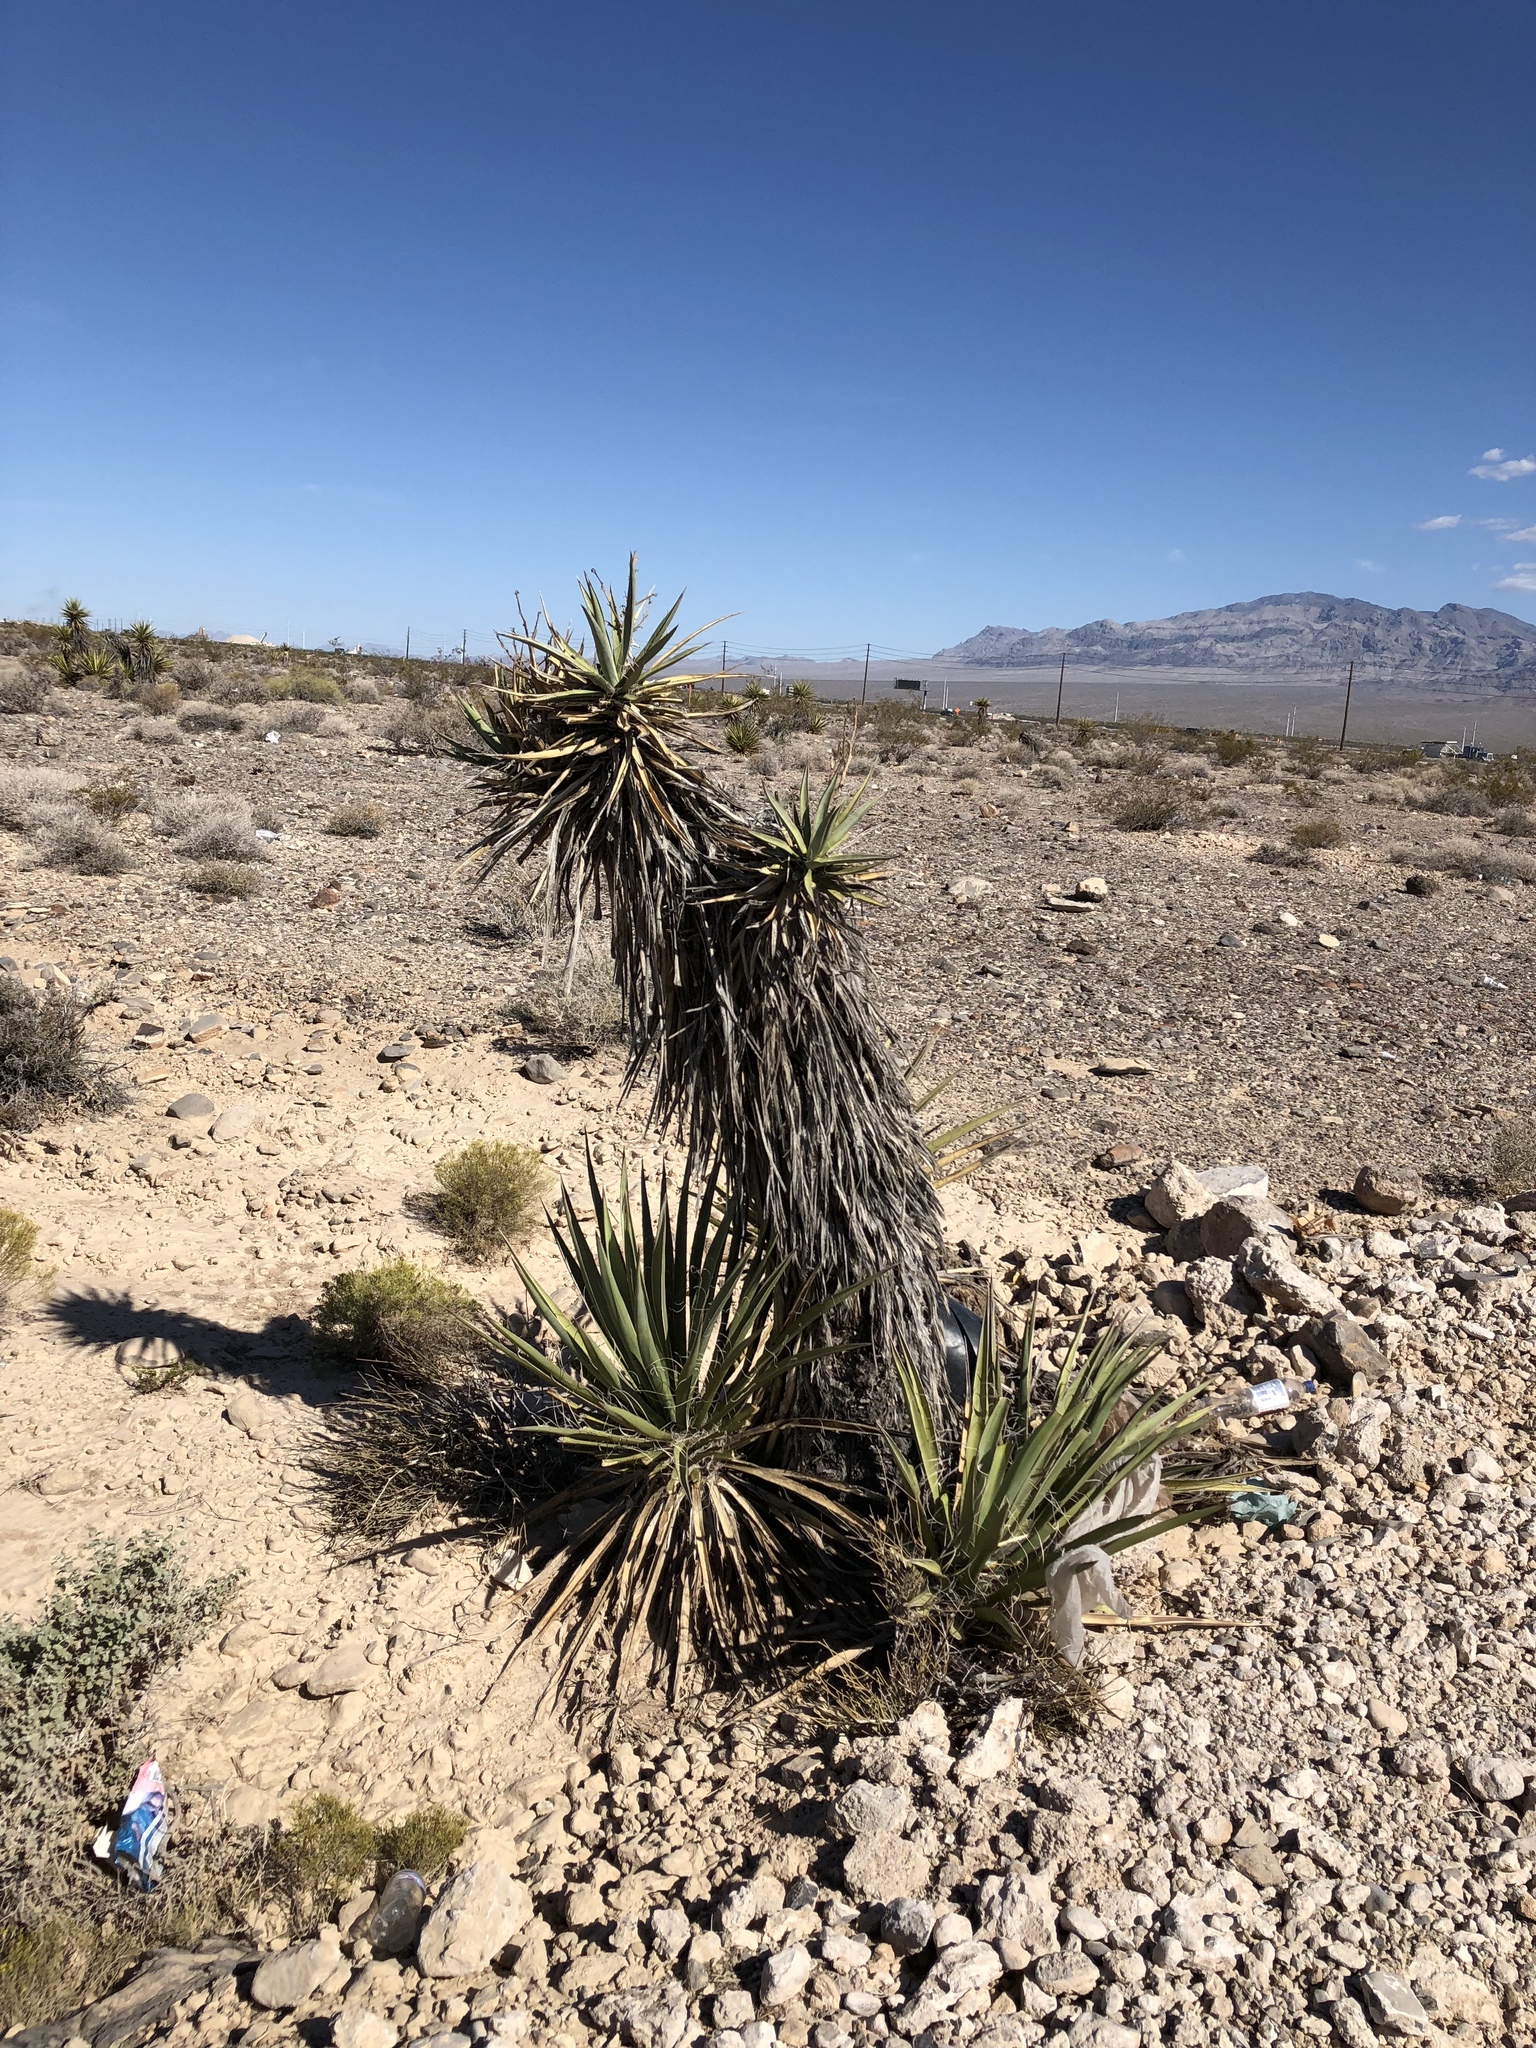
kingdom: Plantae
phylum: Tracheophyta
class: Liliopsida
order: Asparagales
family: Asparagaceae
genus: Yucca
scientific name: Yucca schidigera
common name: Mojave yucca
